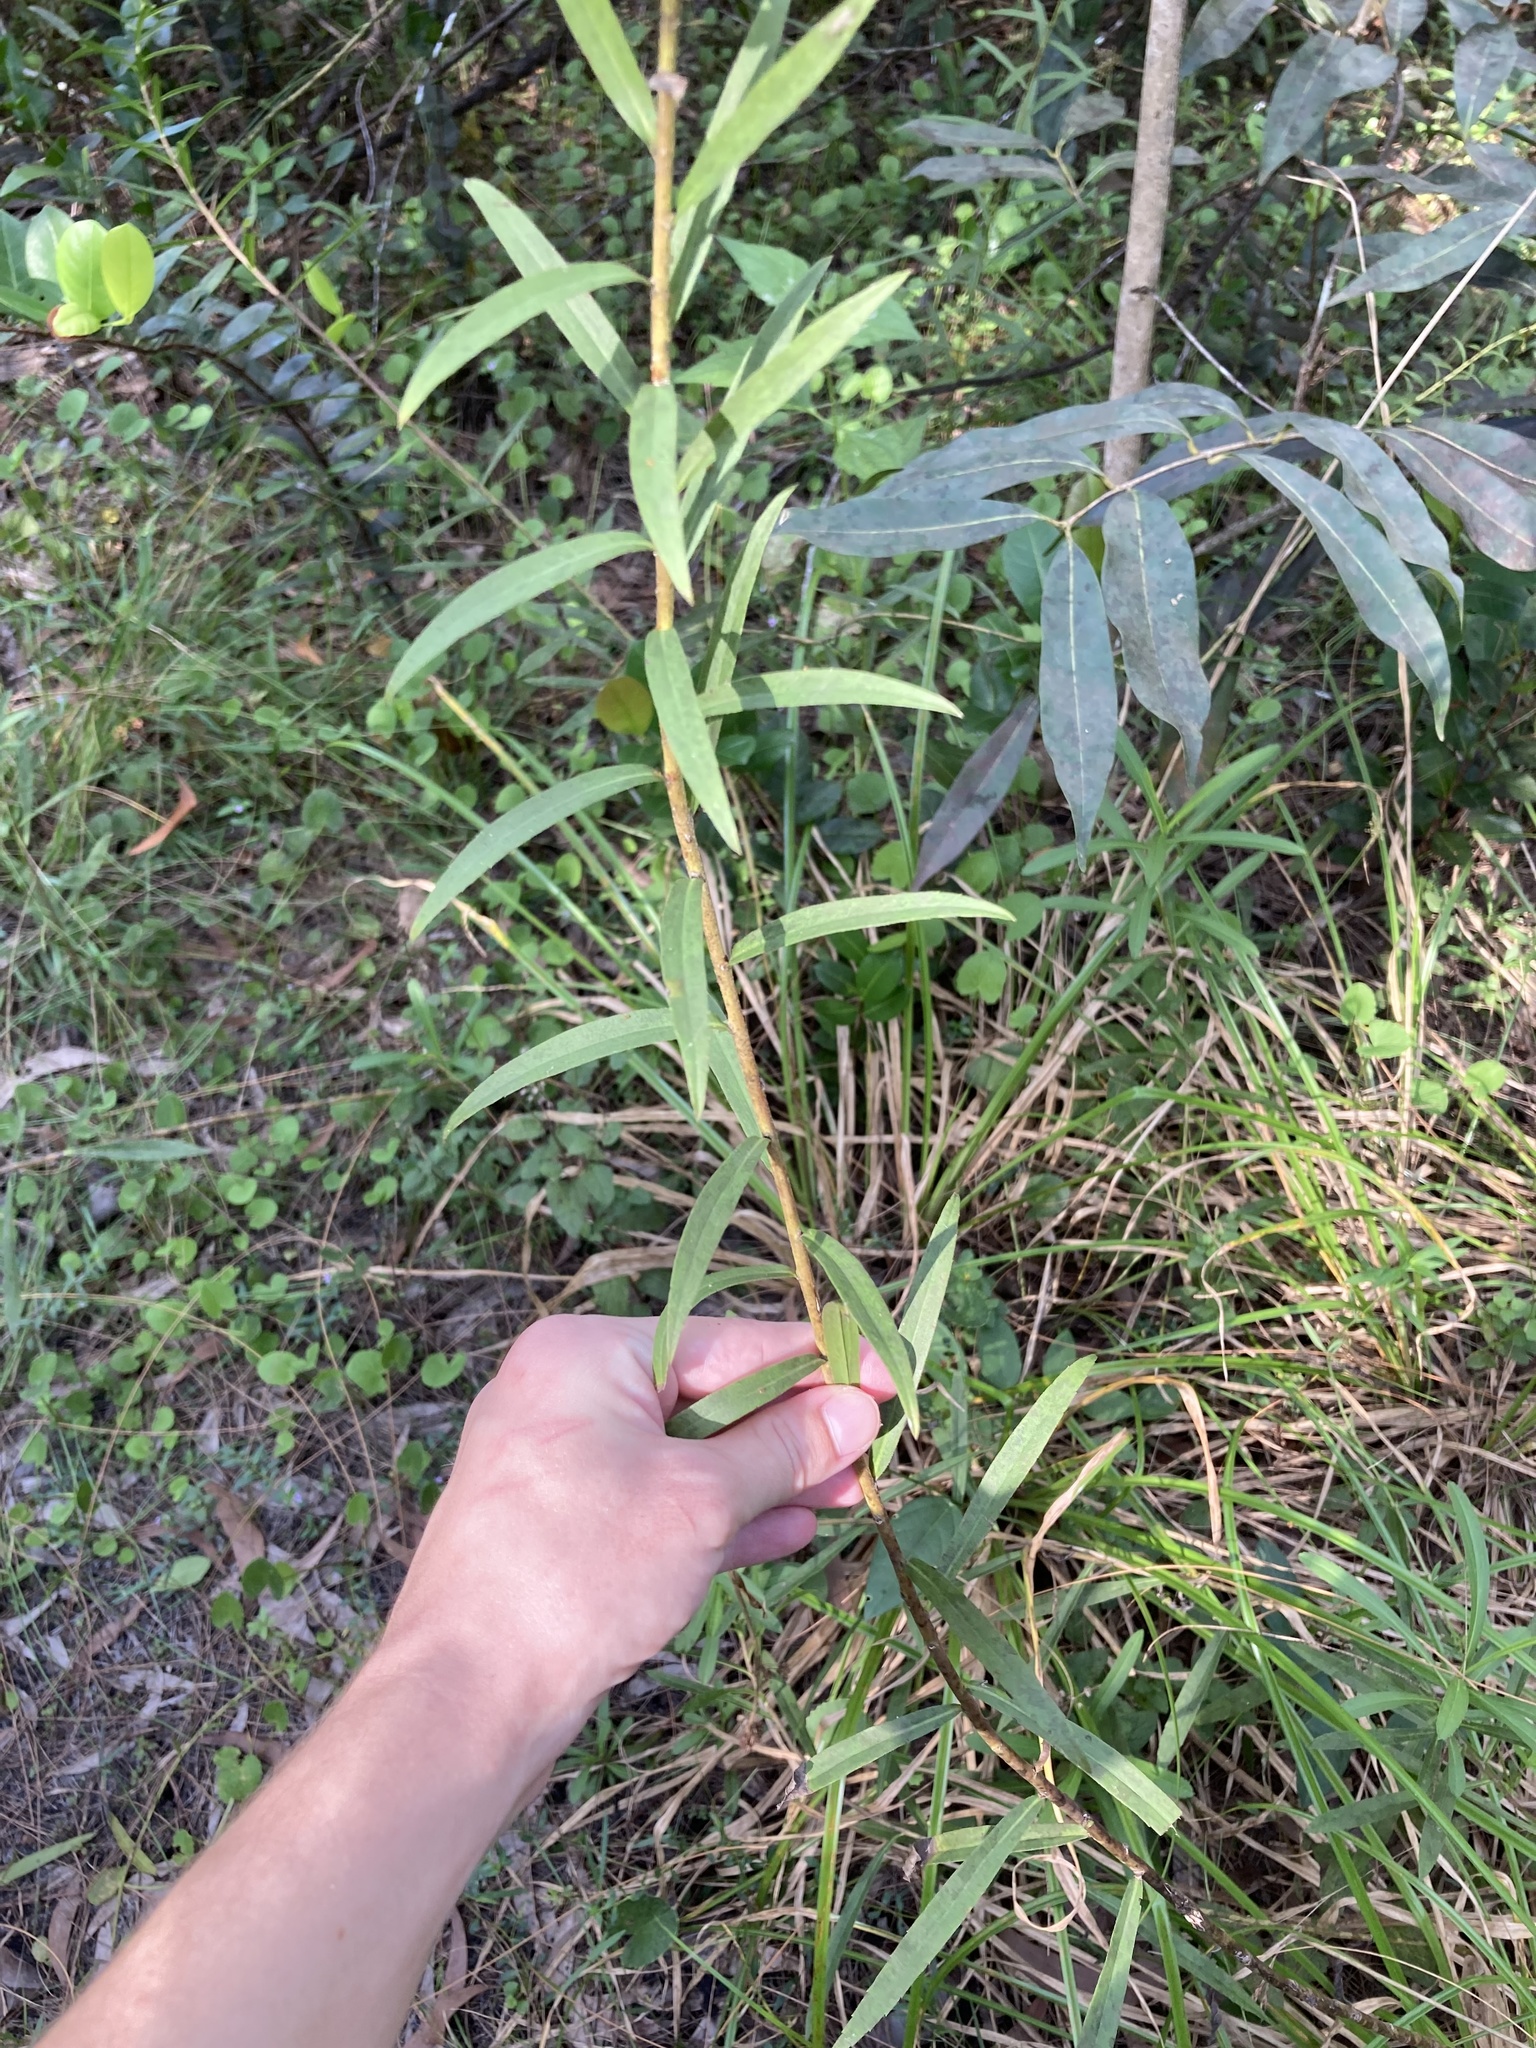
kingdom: Plantae
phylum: Tracheophyta
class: Magnoliopsida
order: Asterales
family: Asteraceae
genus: Solidago
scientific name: Solidago leavenworthii
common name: Leavenworth's goldenrod
